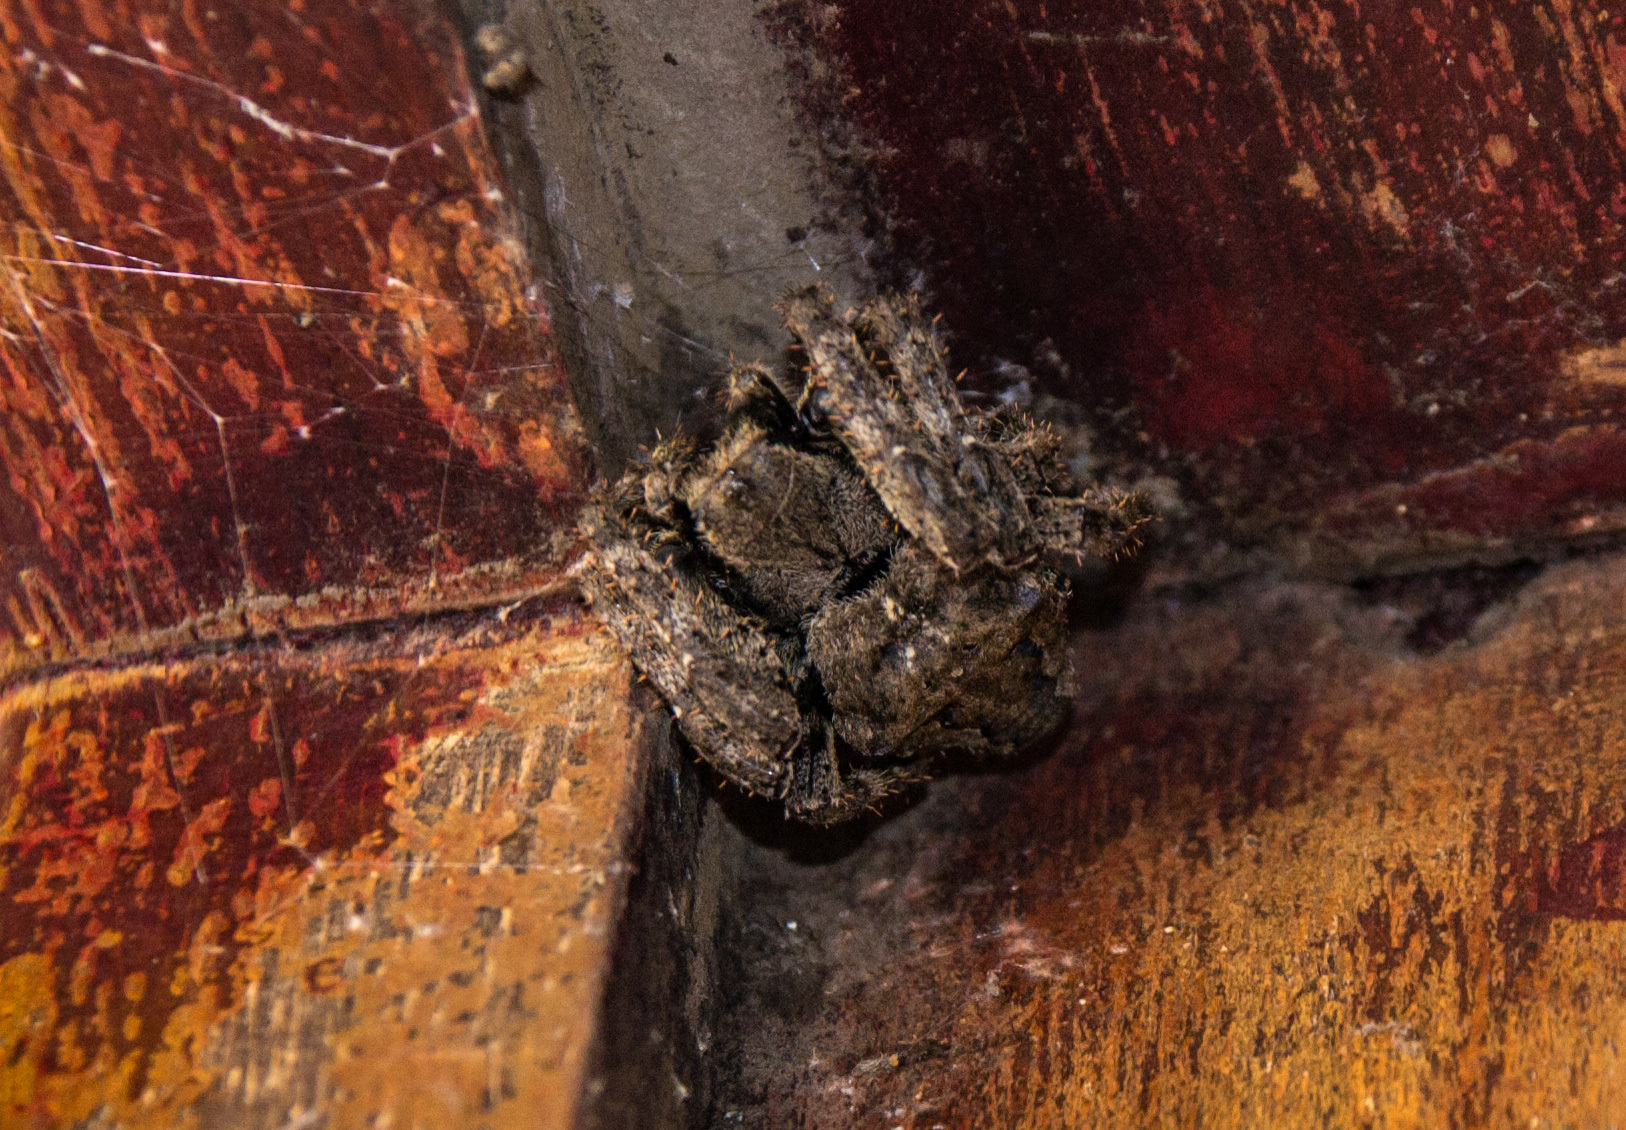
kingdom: Animalia
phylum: Arthropoda
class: Arachnida
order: Araneae
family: Araneidae
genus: Araneus
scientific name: Araneus ventricosus
